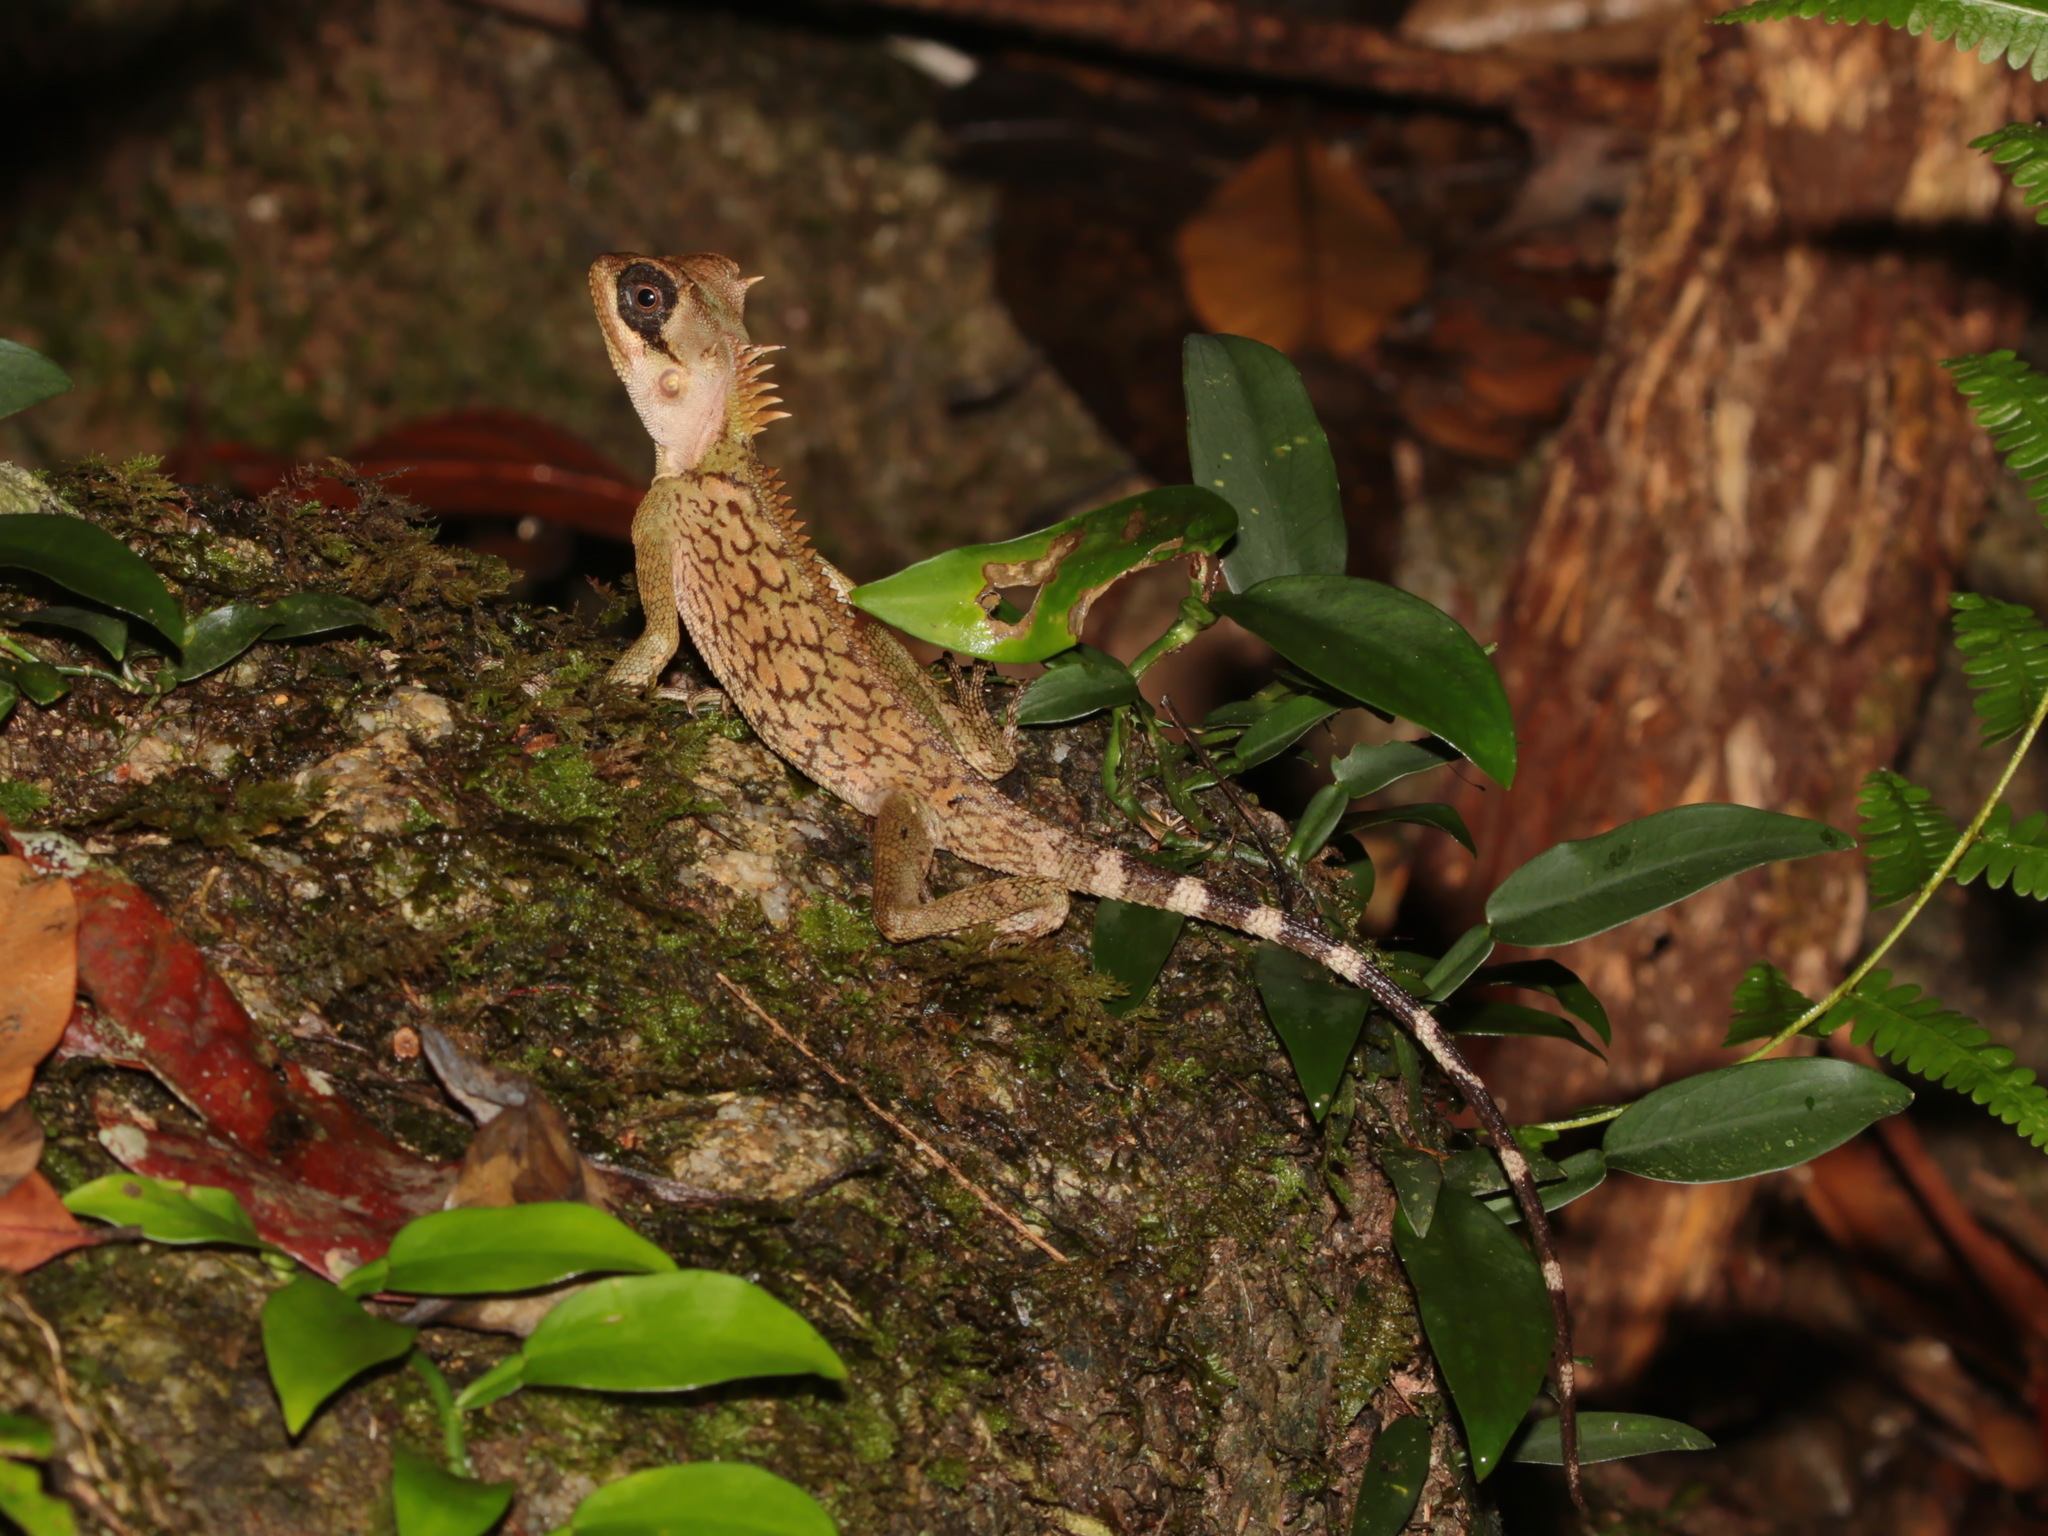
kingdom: Animalia
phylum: Chordata
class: Squamata
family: Agamidae
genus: Acanthosaura
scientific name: Acanthosaura cardamomensis
